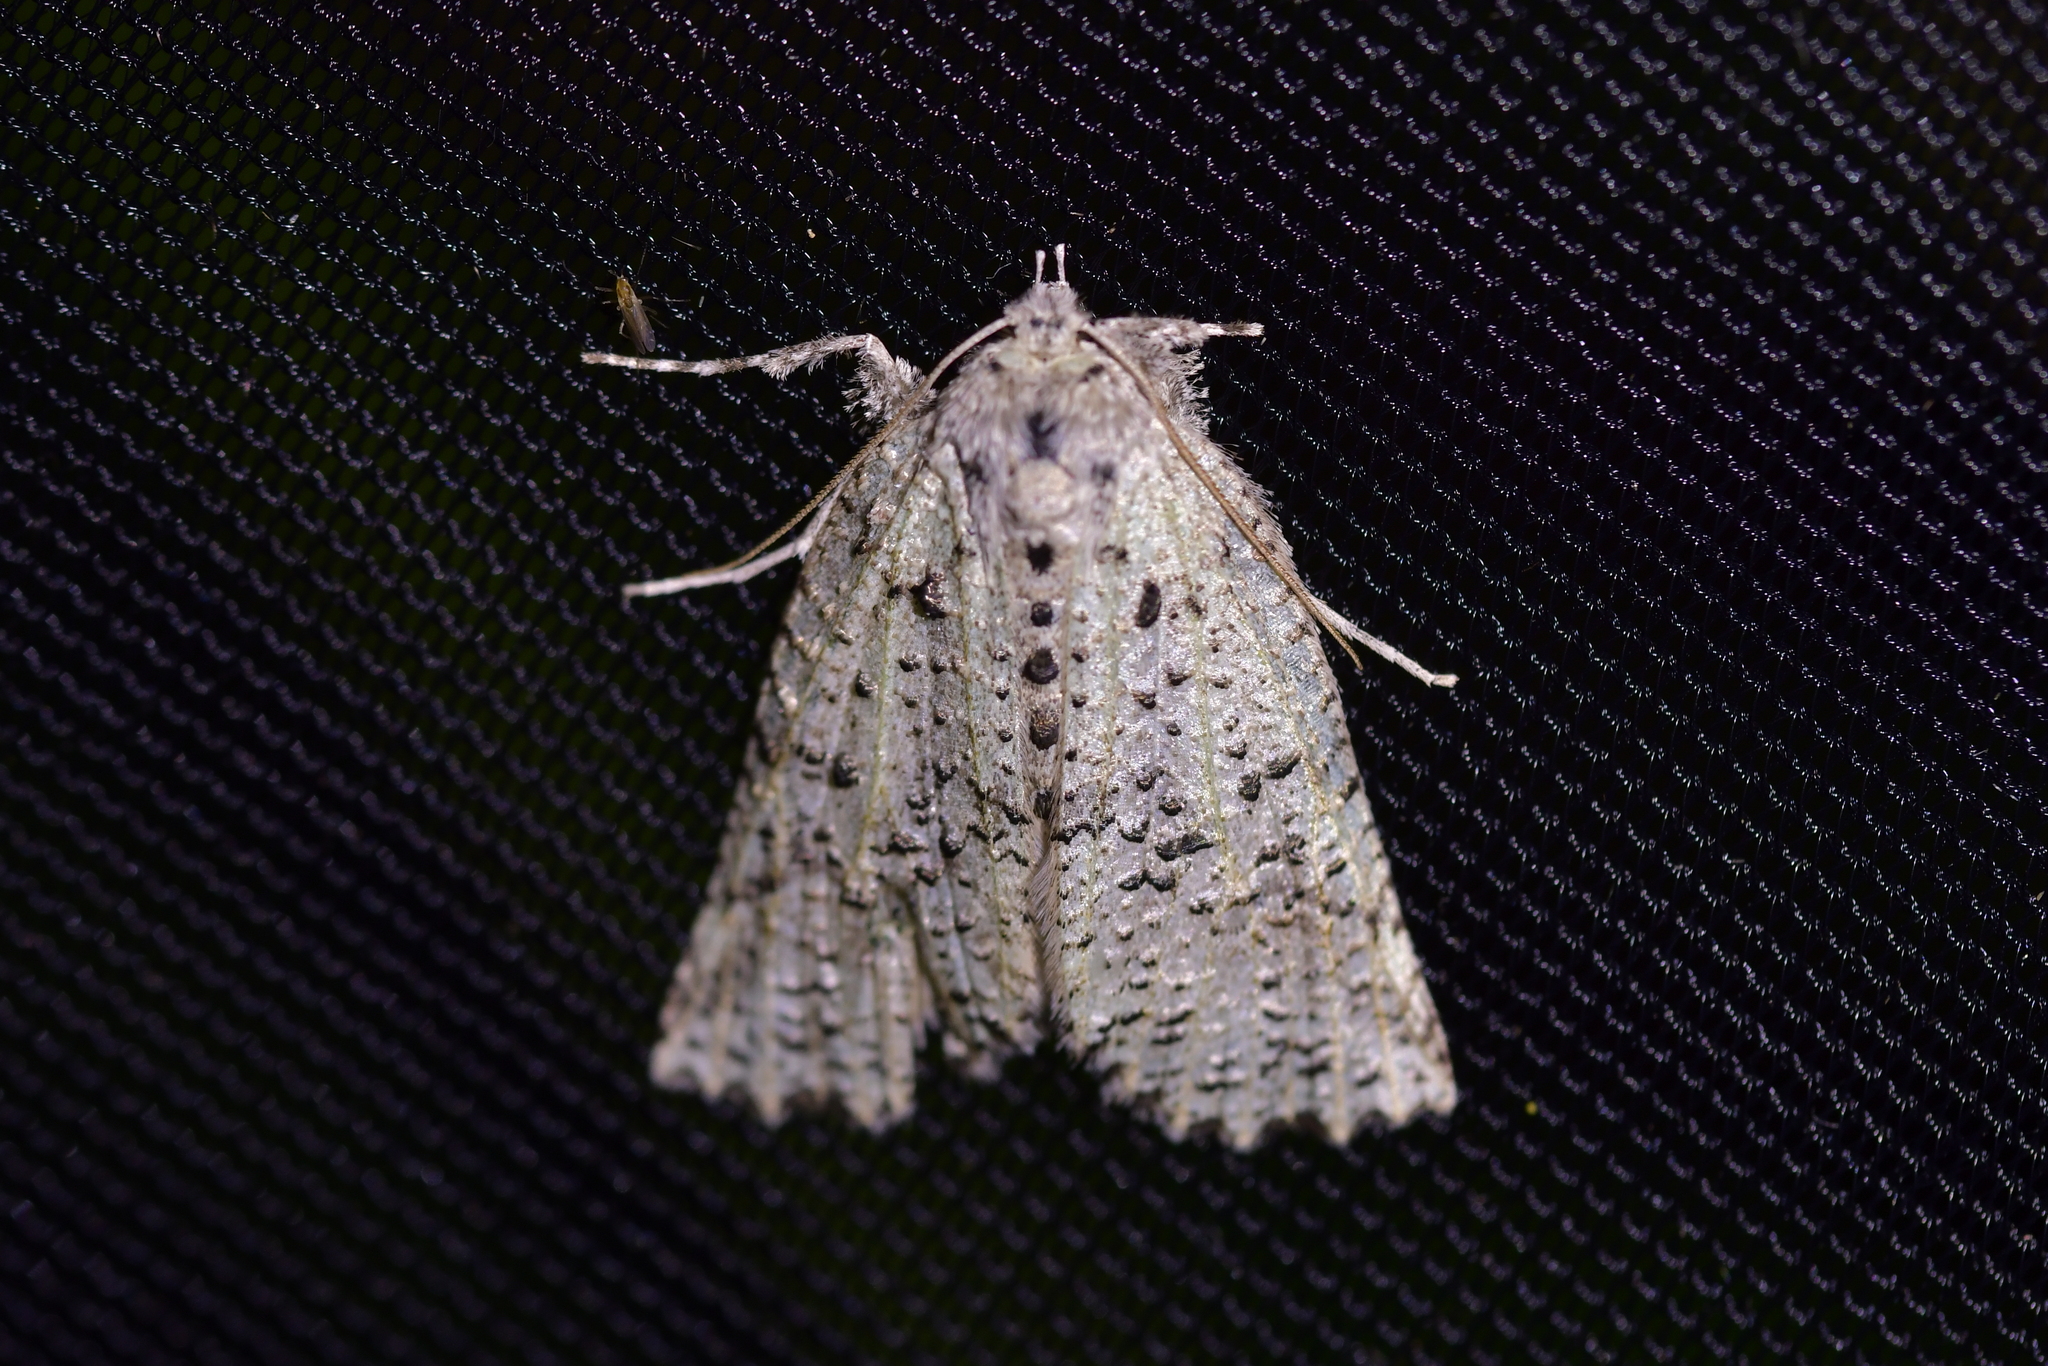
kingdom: Animalia
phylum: Arthropoda
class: Insecta
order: Lepidoptera
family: Geometridae
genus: Declana
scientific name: Declana floccosa
